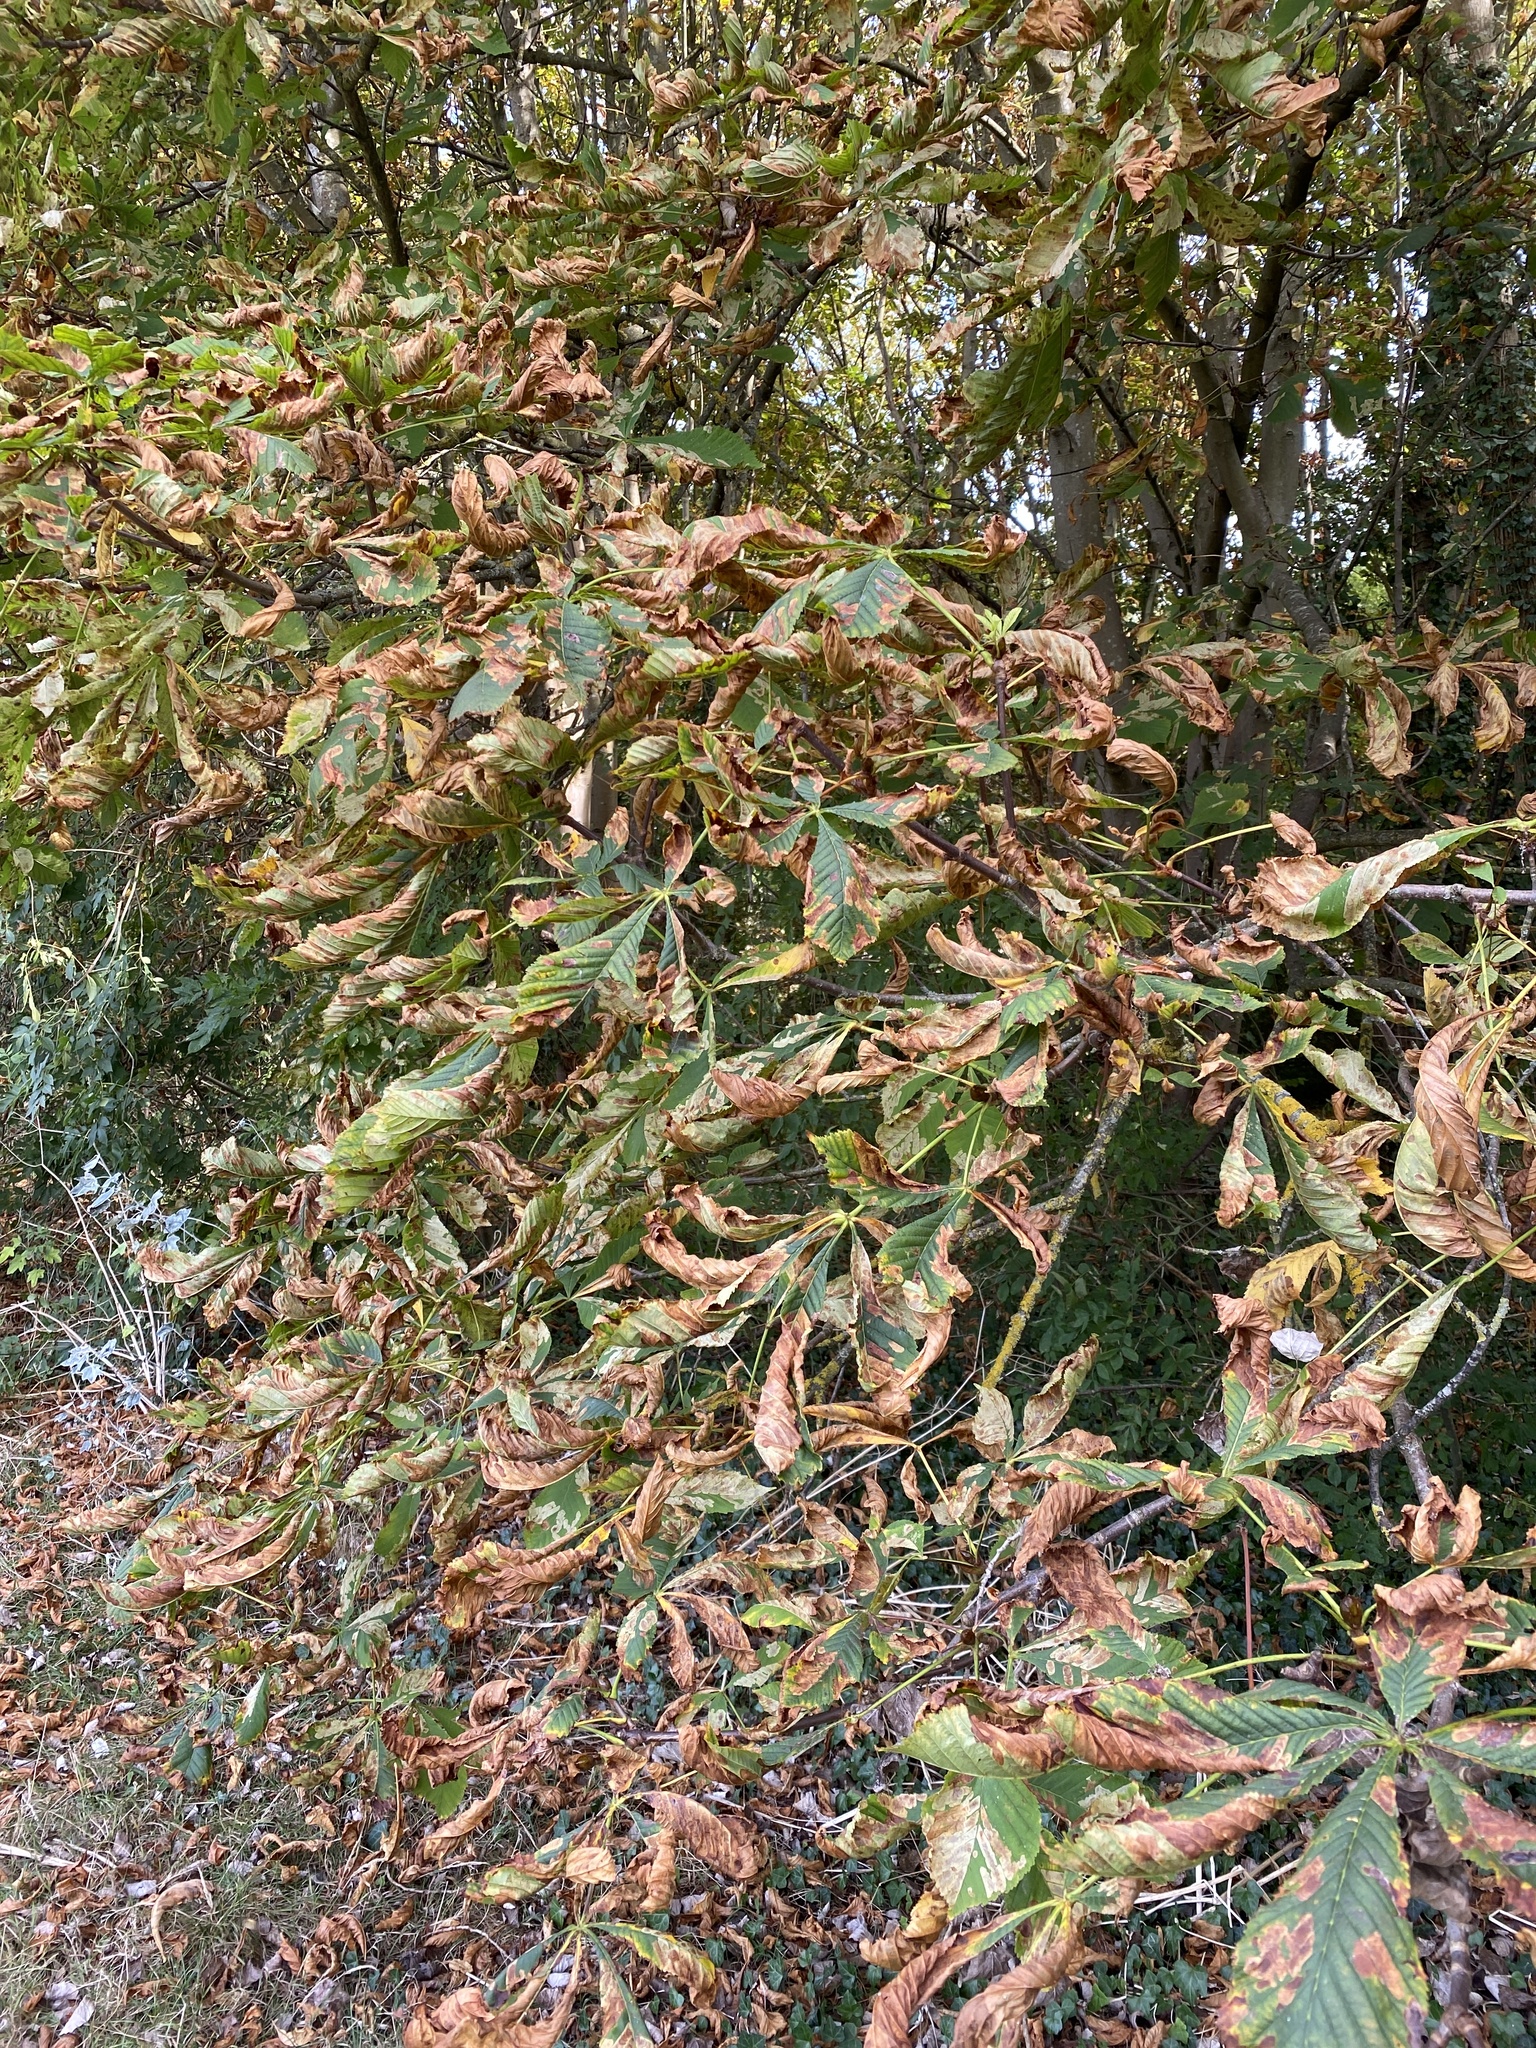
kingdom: Plantae
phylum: Tracheophyta
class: Magnoliopsida
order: Sapindales
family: Sapindaceae
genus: Aesculus
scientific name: Aesculus hippocastanum
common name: Horse-chestnut
